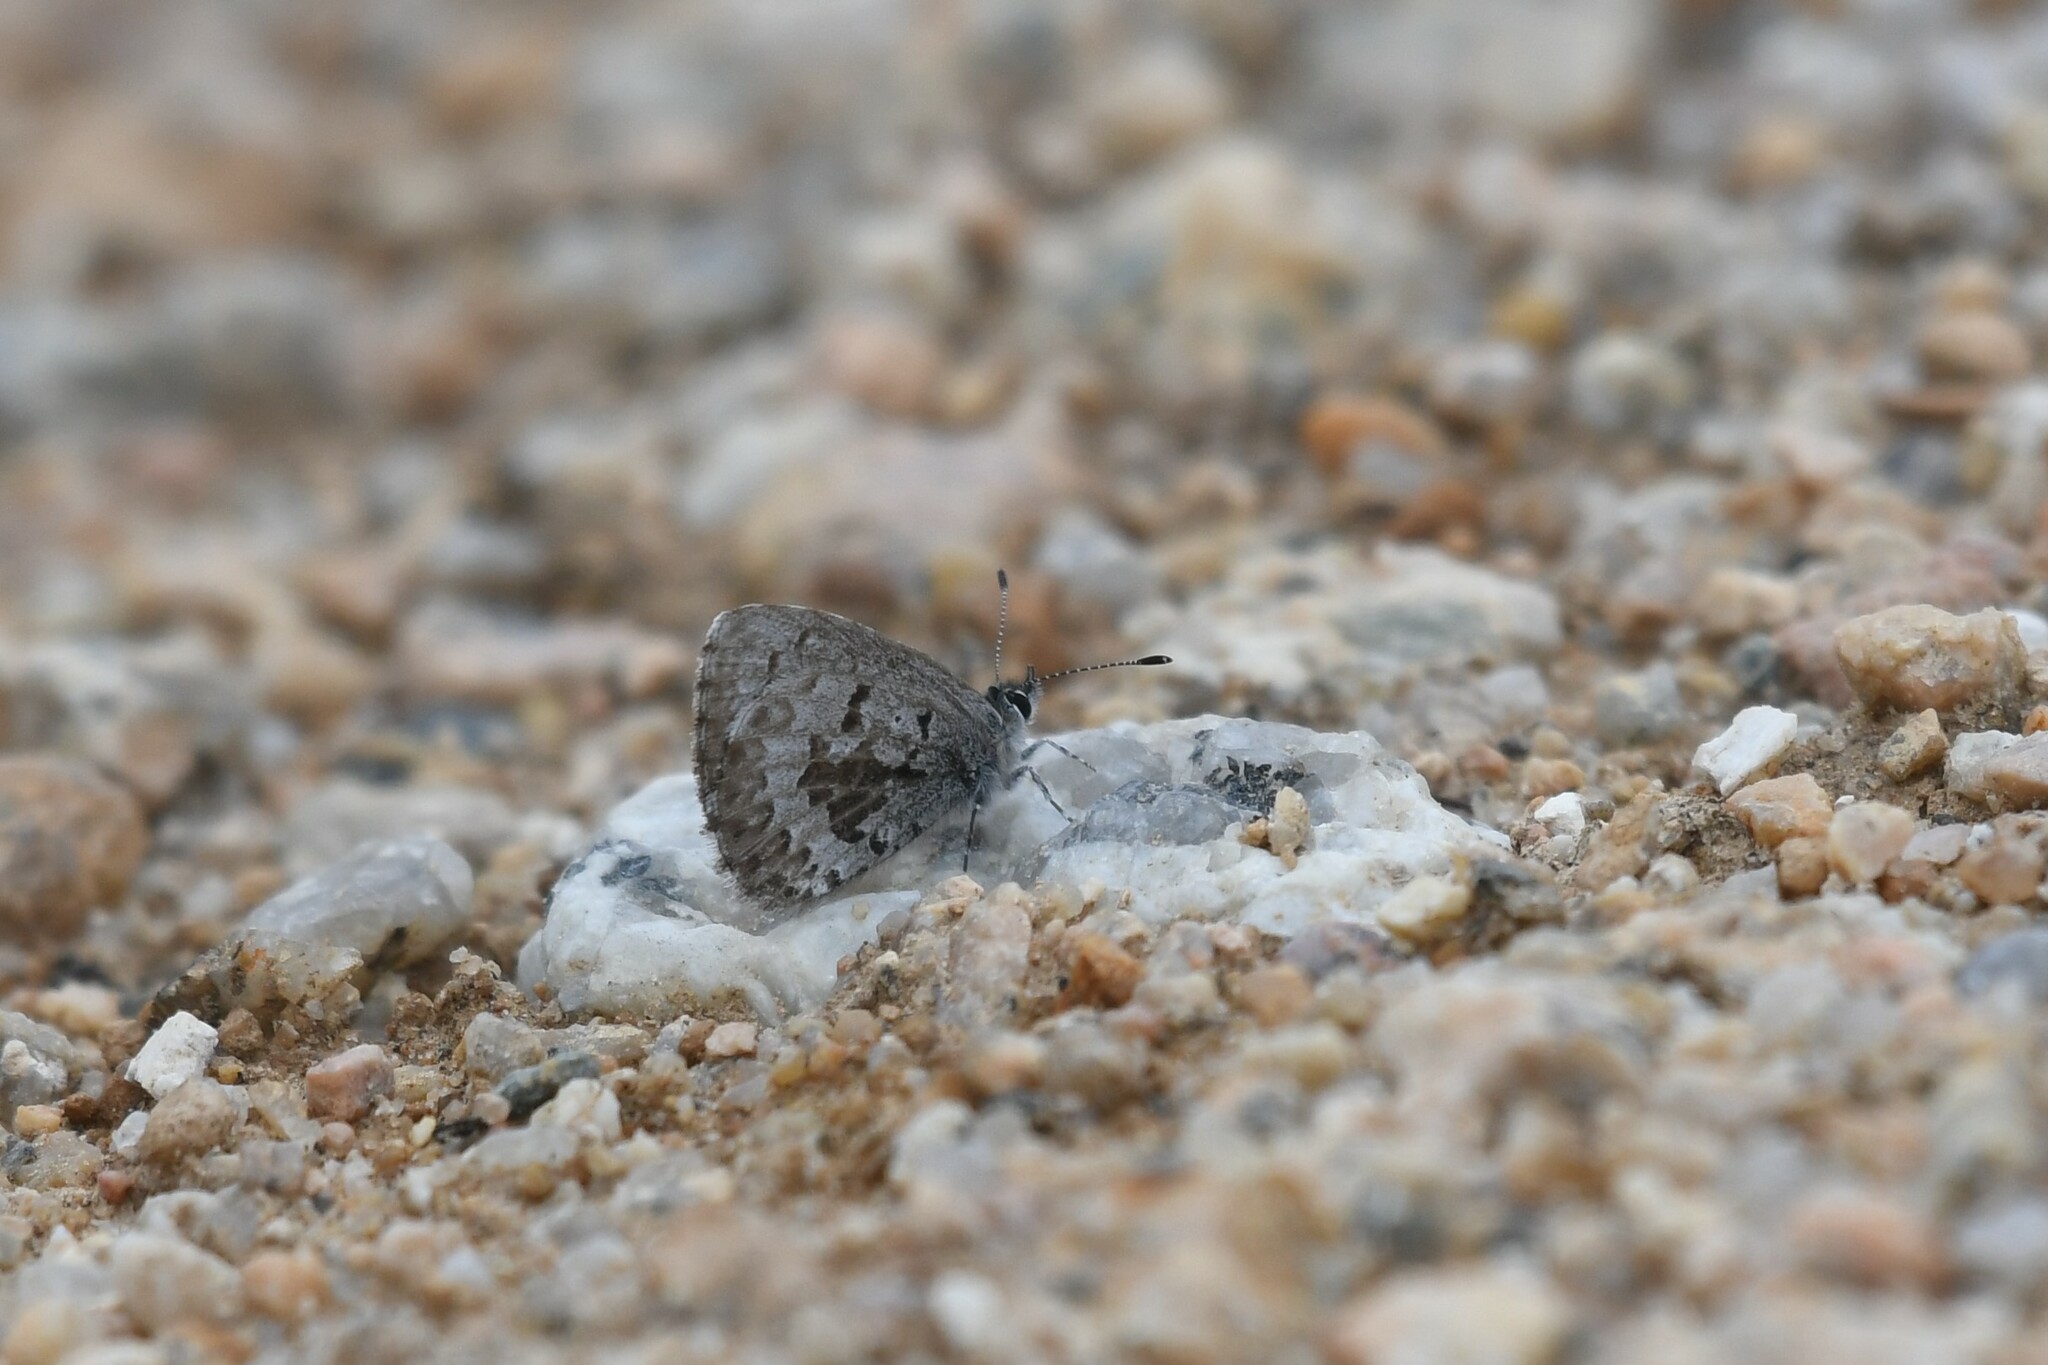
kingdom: Animalia
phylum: Arthropoda
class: Insecta
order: Lepidoptera
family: Lycaenidae
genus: Celastrina
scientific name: Celastrina lucia
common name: Lucia azure
